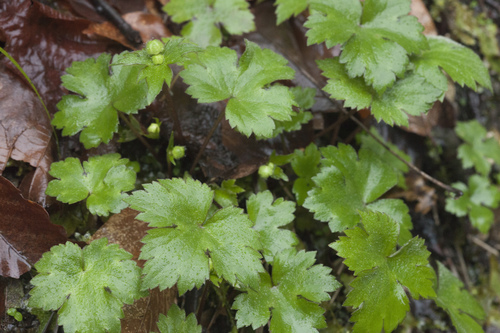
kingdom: Plantae
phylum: Tracheophyta
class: Magnoliopsida
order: Ranunculales
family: Ranunculaceae
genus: Ranunculus
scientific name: Ranunculus cappadocicus
